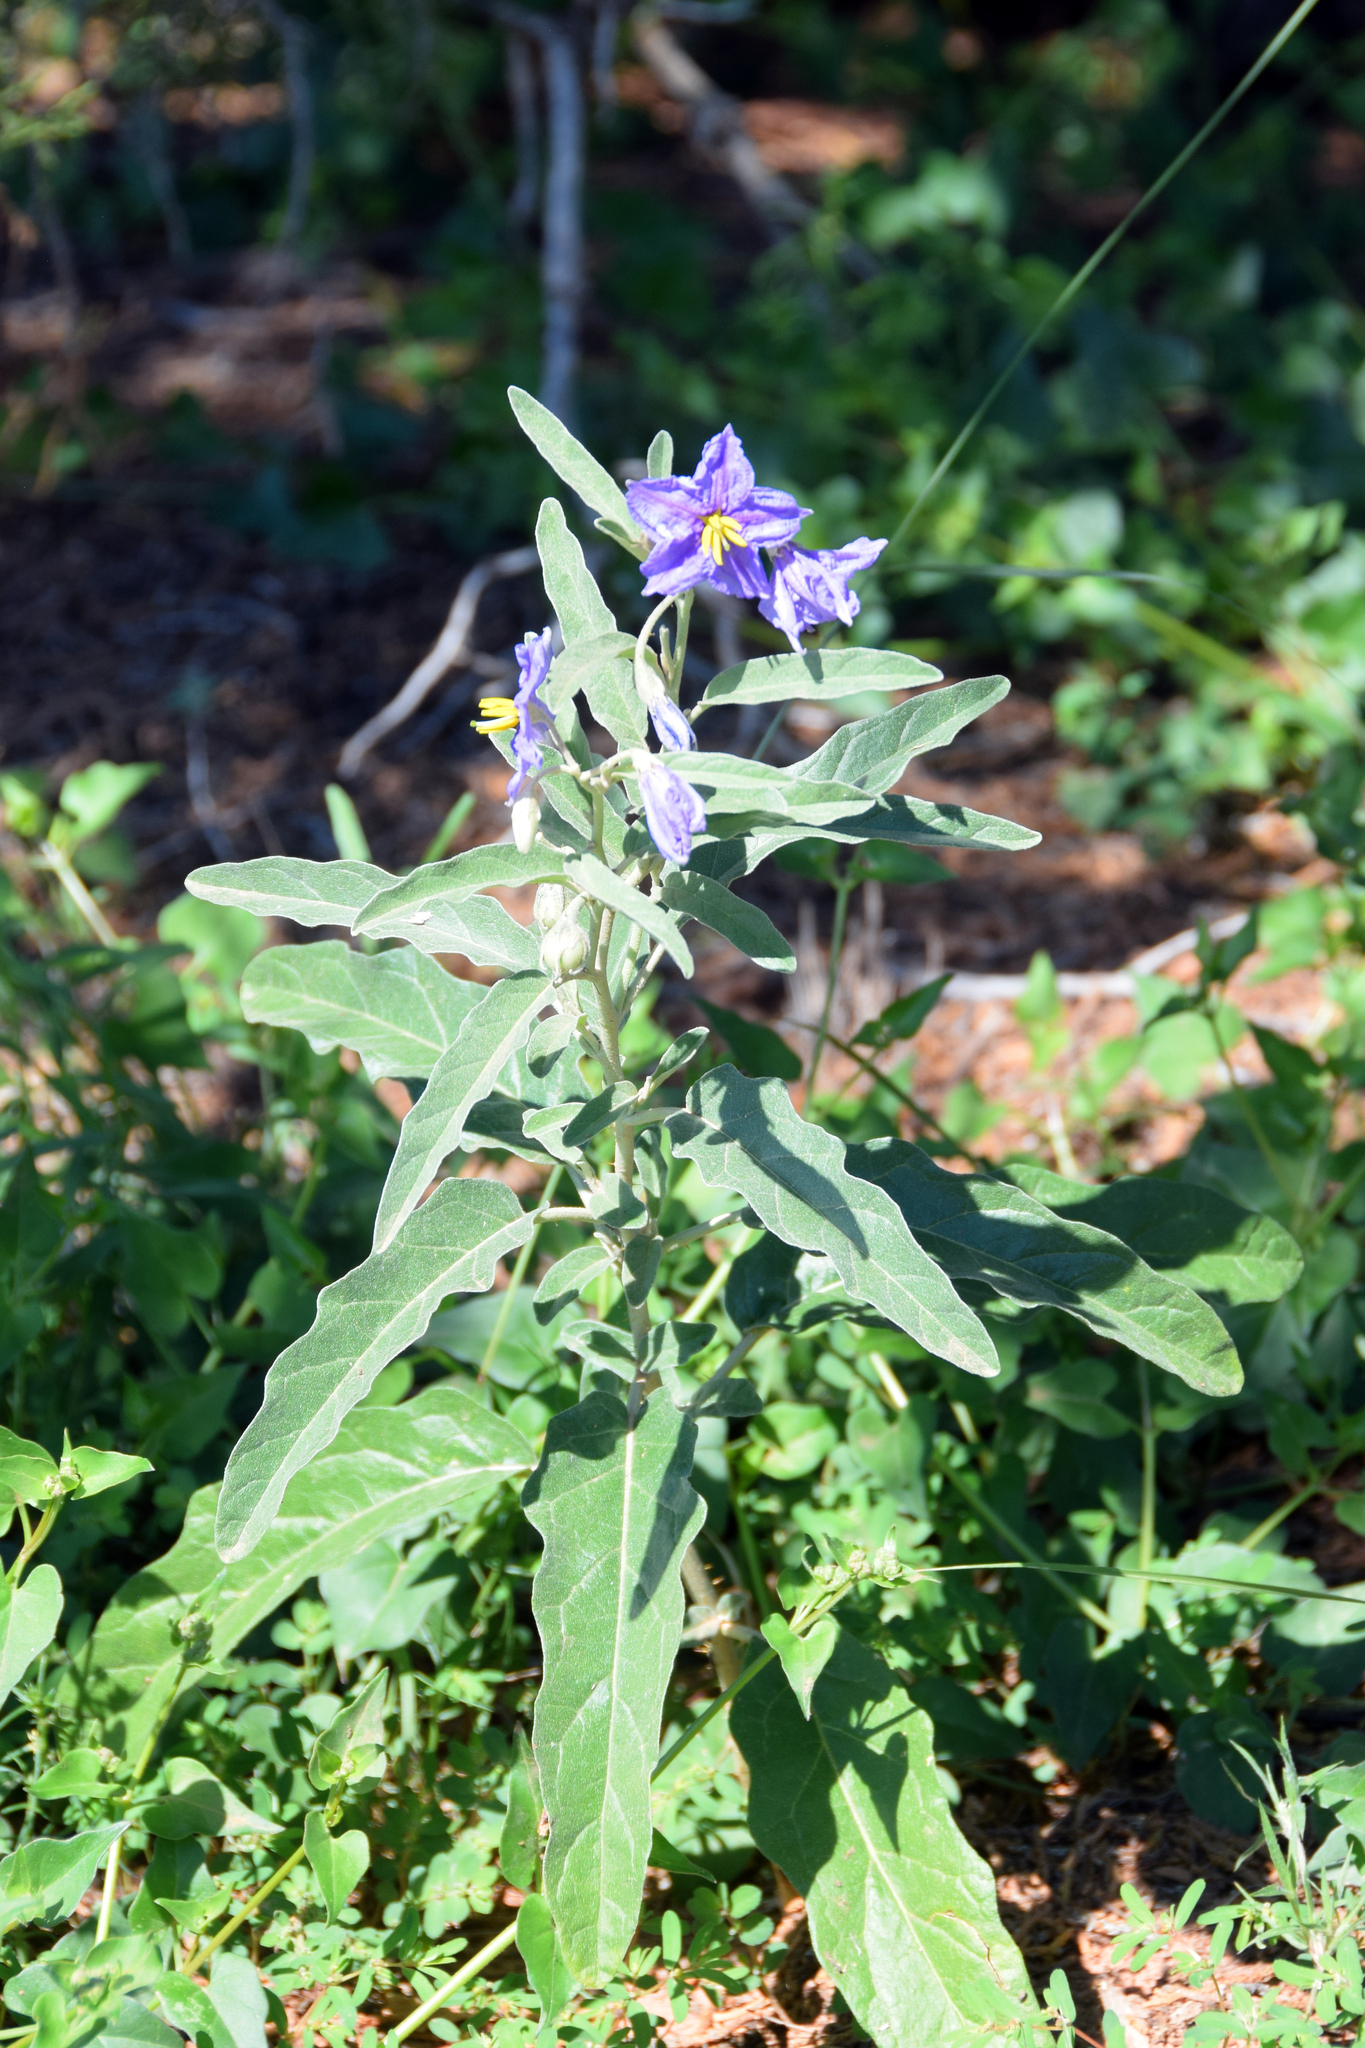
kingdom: Plantae
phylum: Tracheophyta
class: Magnoliopsida
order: Solanales
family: Solanaceae
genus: Solanum
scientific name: Solanum elaeagnifolium
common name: Silverleaf nightshade
